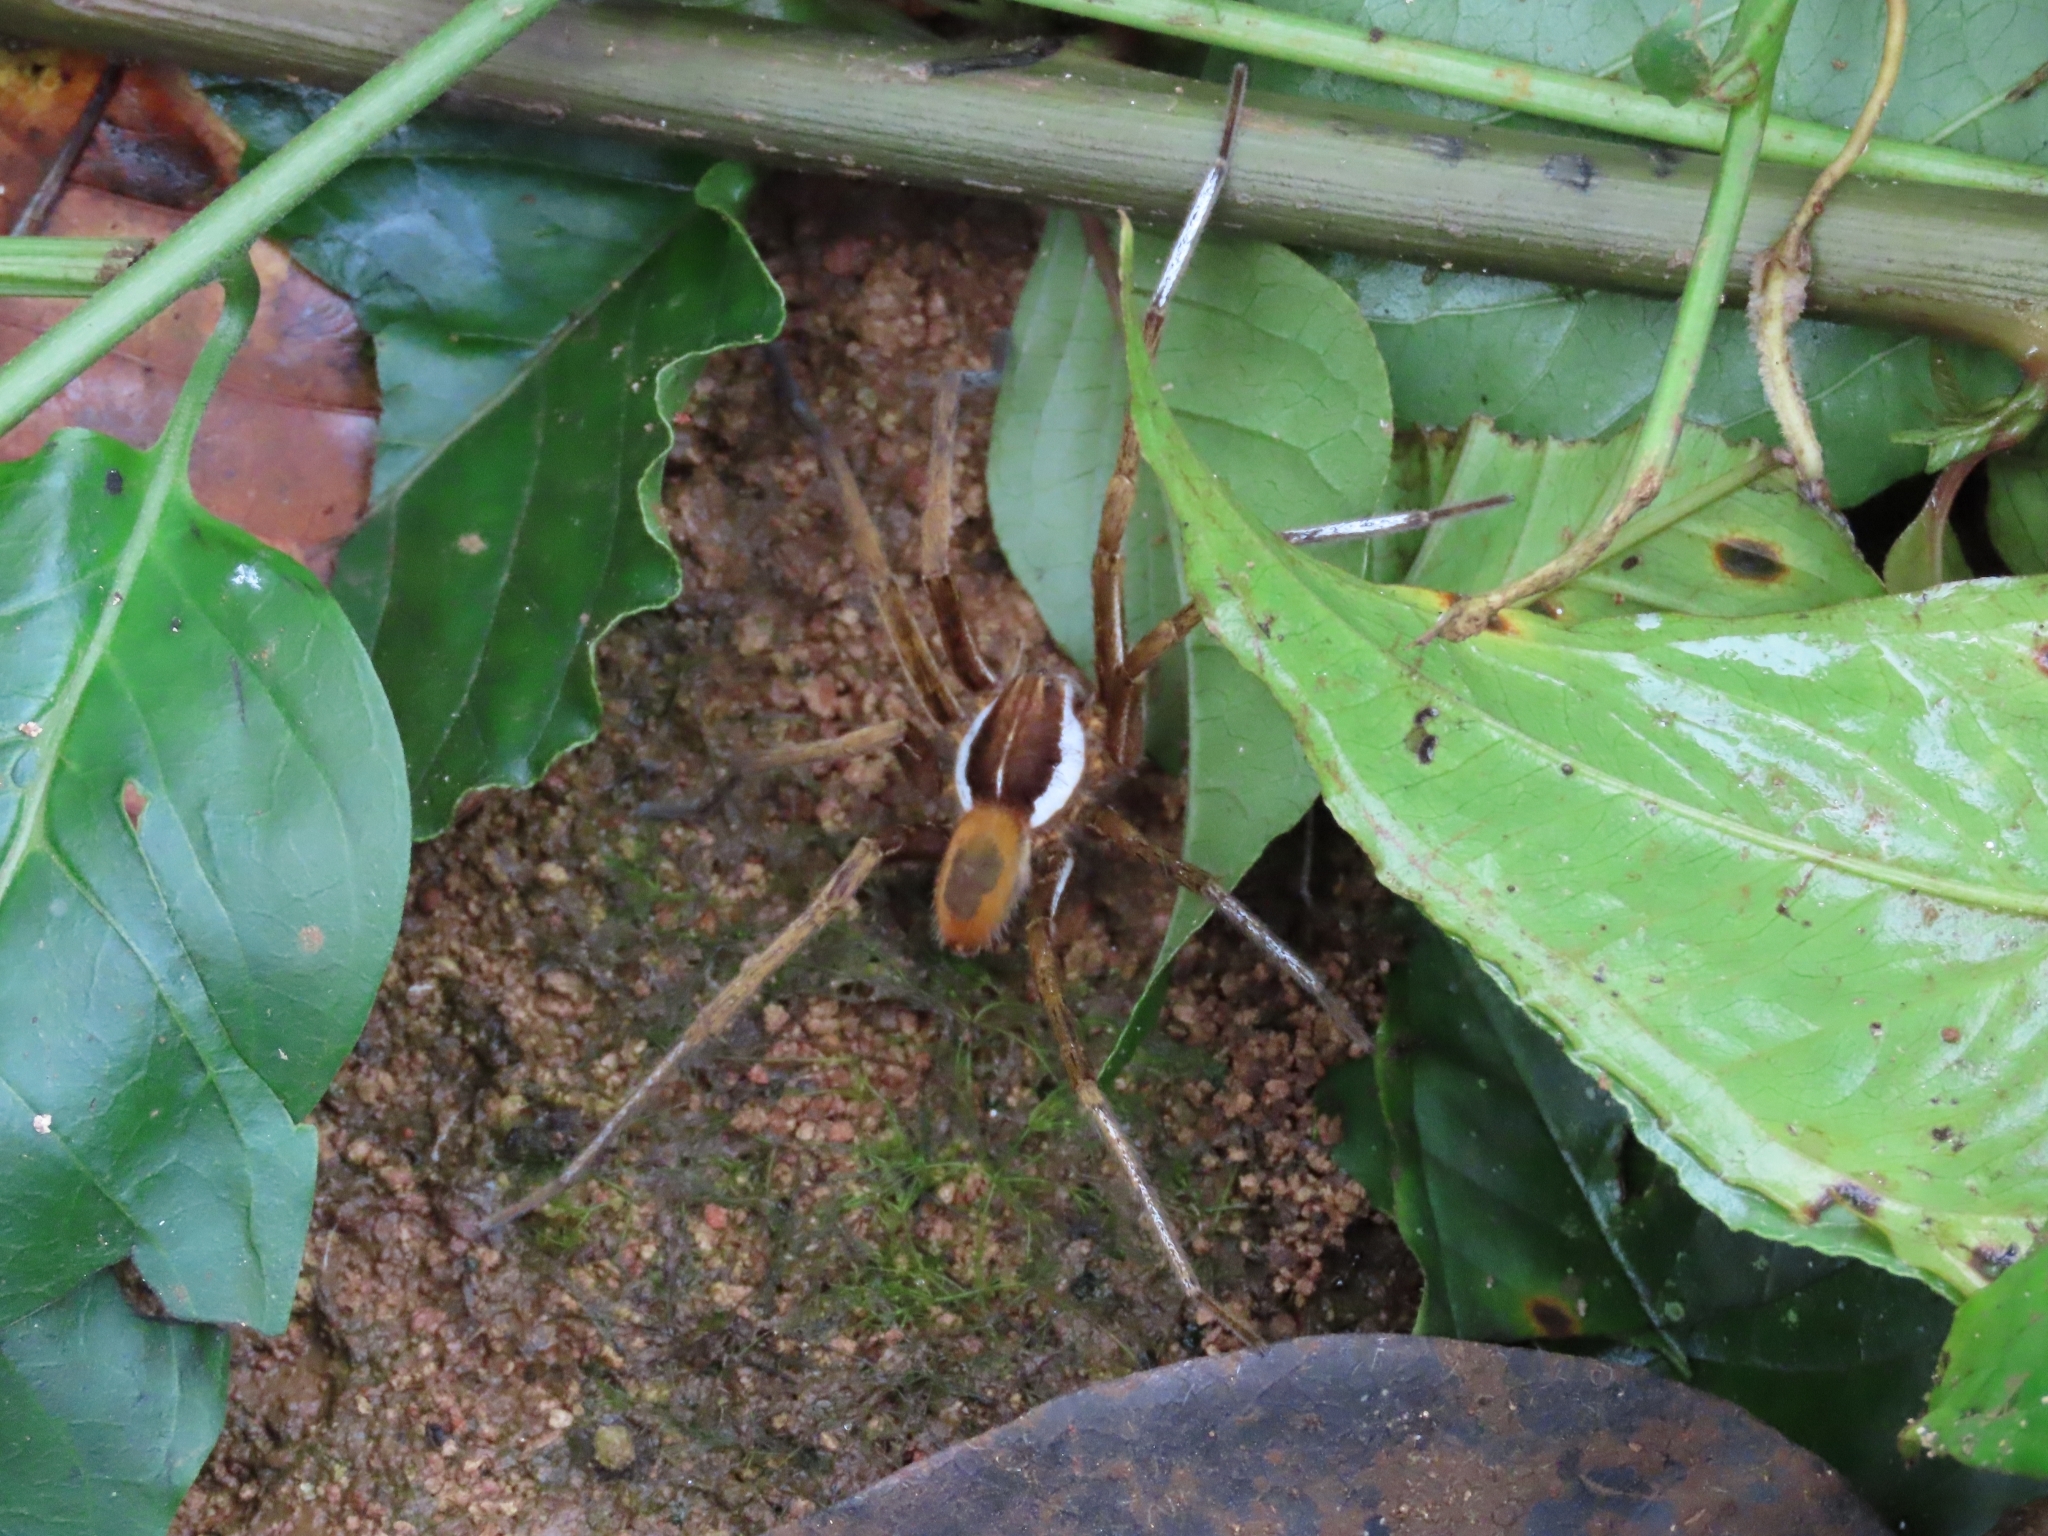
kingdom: Animalia
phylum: Arthropoda
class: Arachnida
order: Araneae
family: Ctenidae
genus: Ancylometes
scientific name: Ancylometes bogotensis
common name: Wandering spiders
